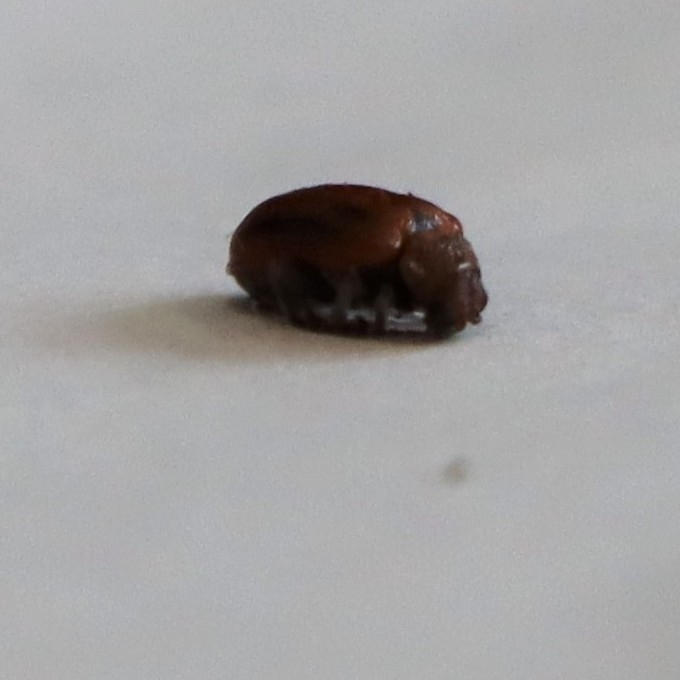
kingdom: Animalia
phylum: Arthropoda
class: Insecta
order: Coleoptera
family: Chrysomelidae
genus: Lochmaea
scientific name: Lochmaea crataegi
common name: Hawthorn leaf beetle
